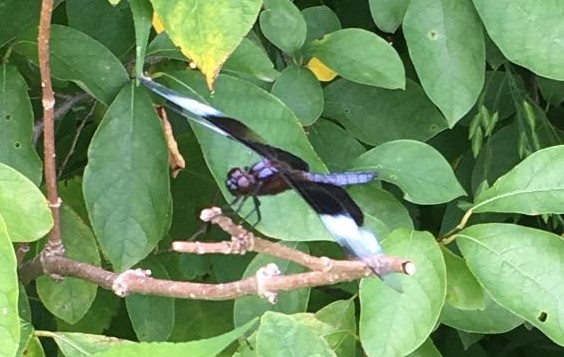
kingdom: Animalia
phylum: Arthropoda
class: Insecta
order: Odonata
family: Libellulidae
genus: Libellula
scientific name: Libellula luctuosa
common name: Widow skimmer
